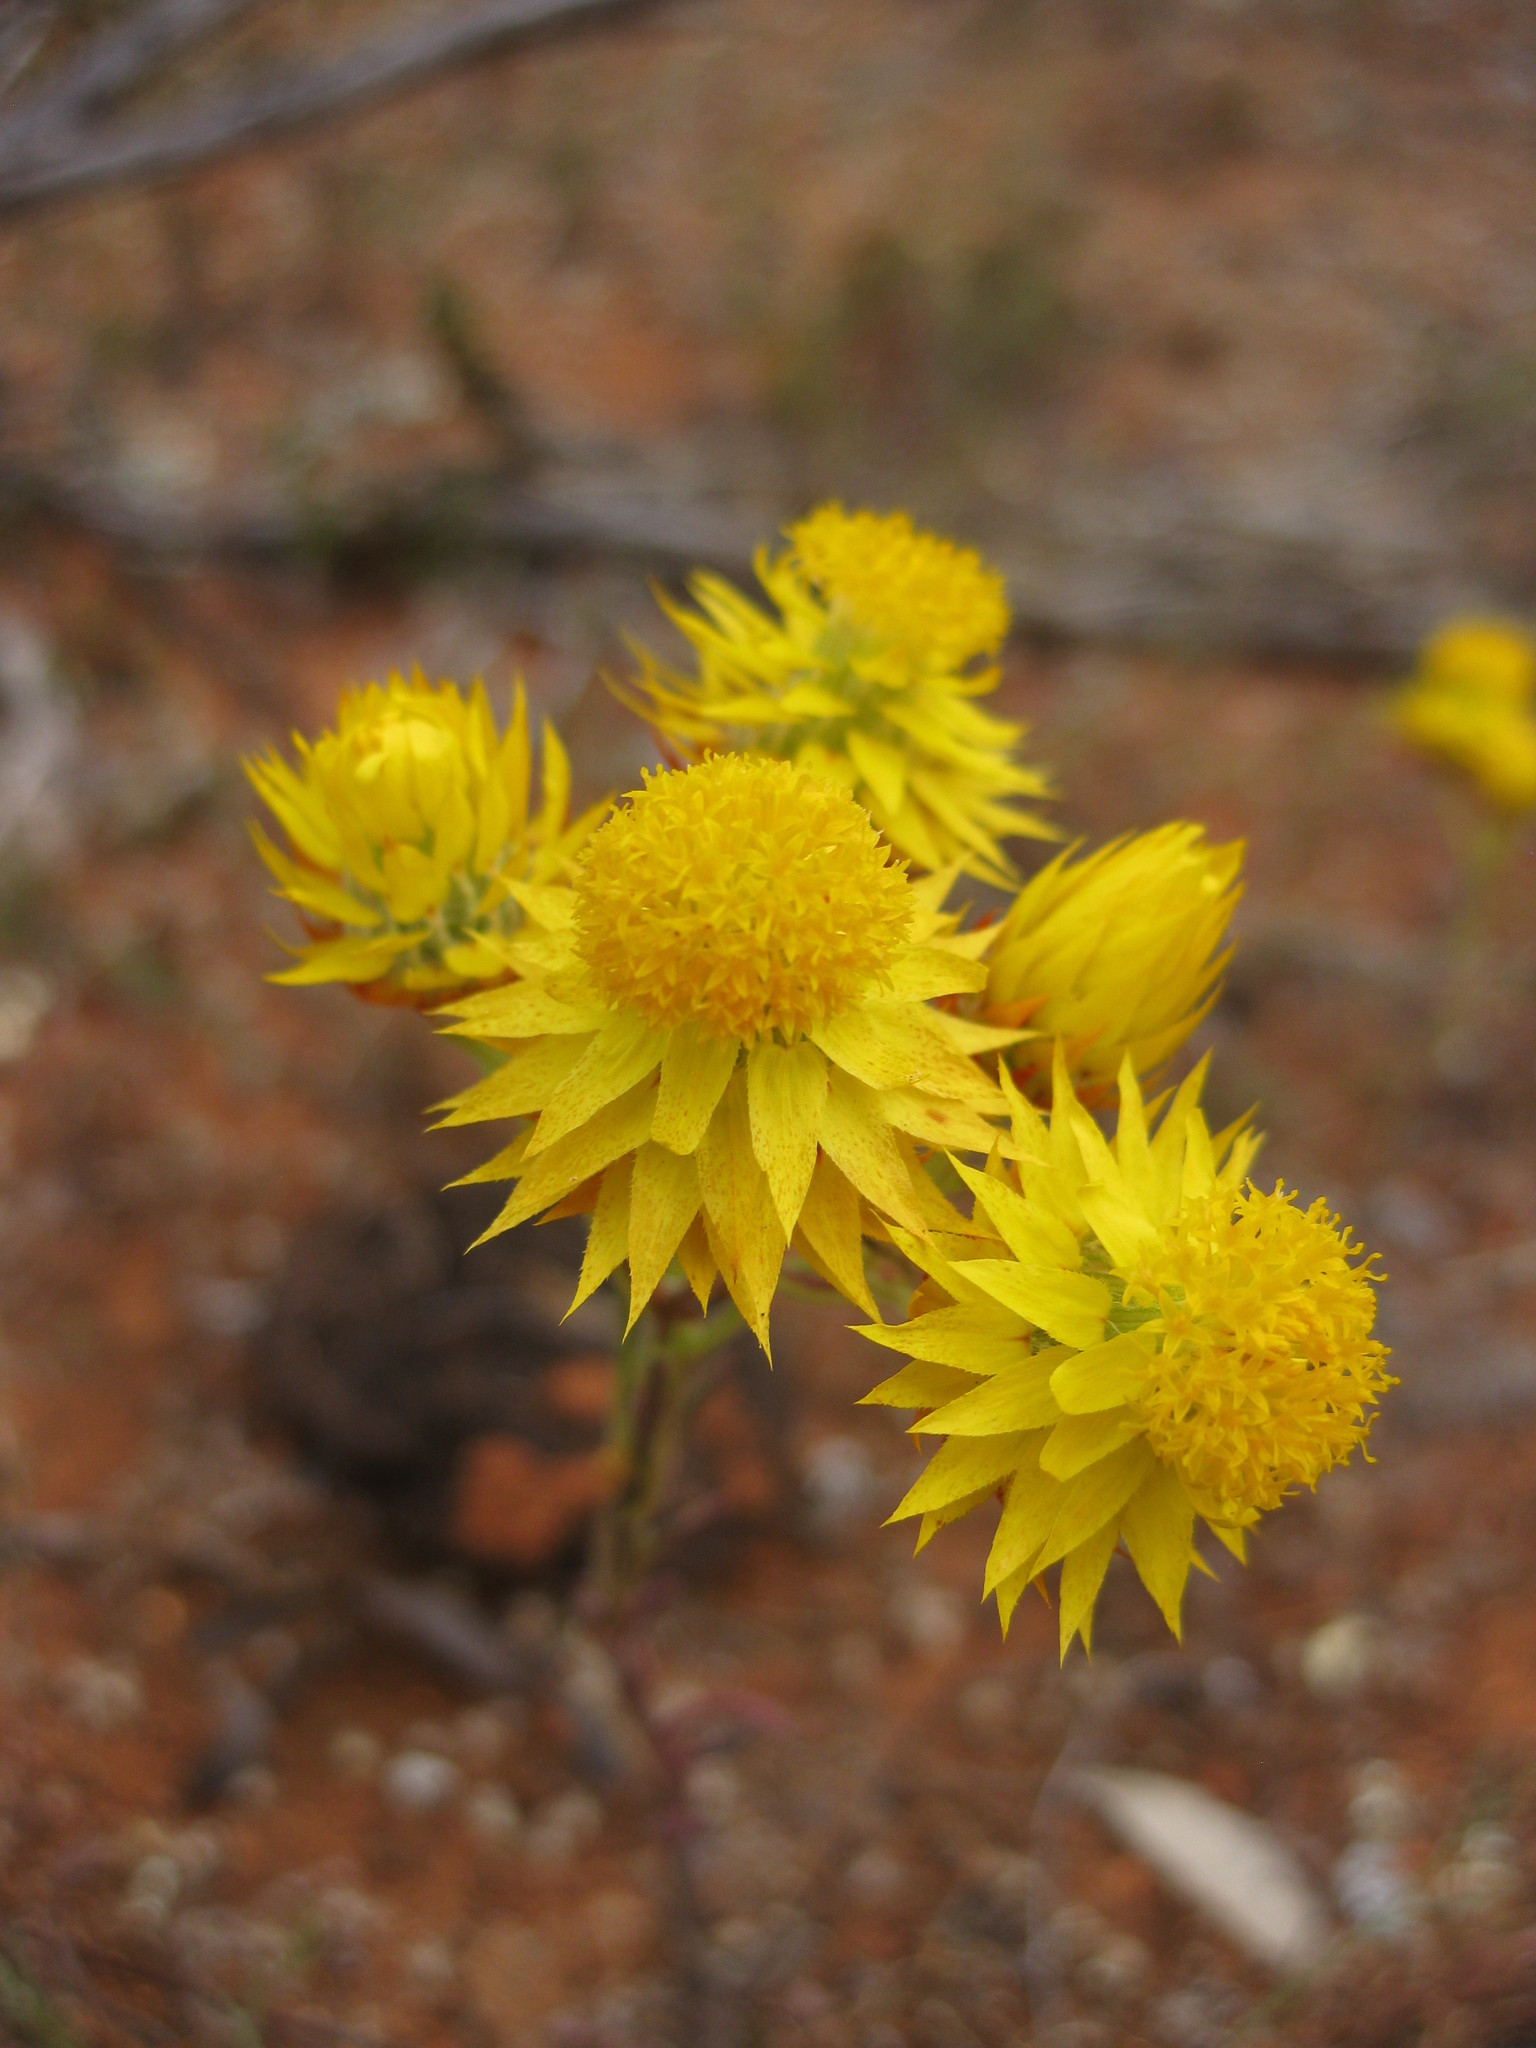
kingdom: Plantae
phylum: Tracheophyta
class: Magnoliopsida
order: Asterales
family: Asteraceae
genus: Waitzia
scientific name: Waitzia acuminata
